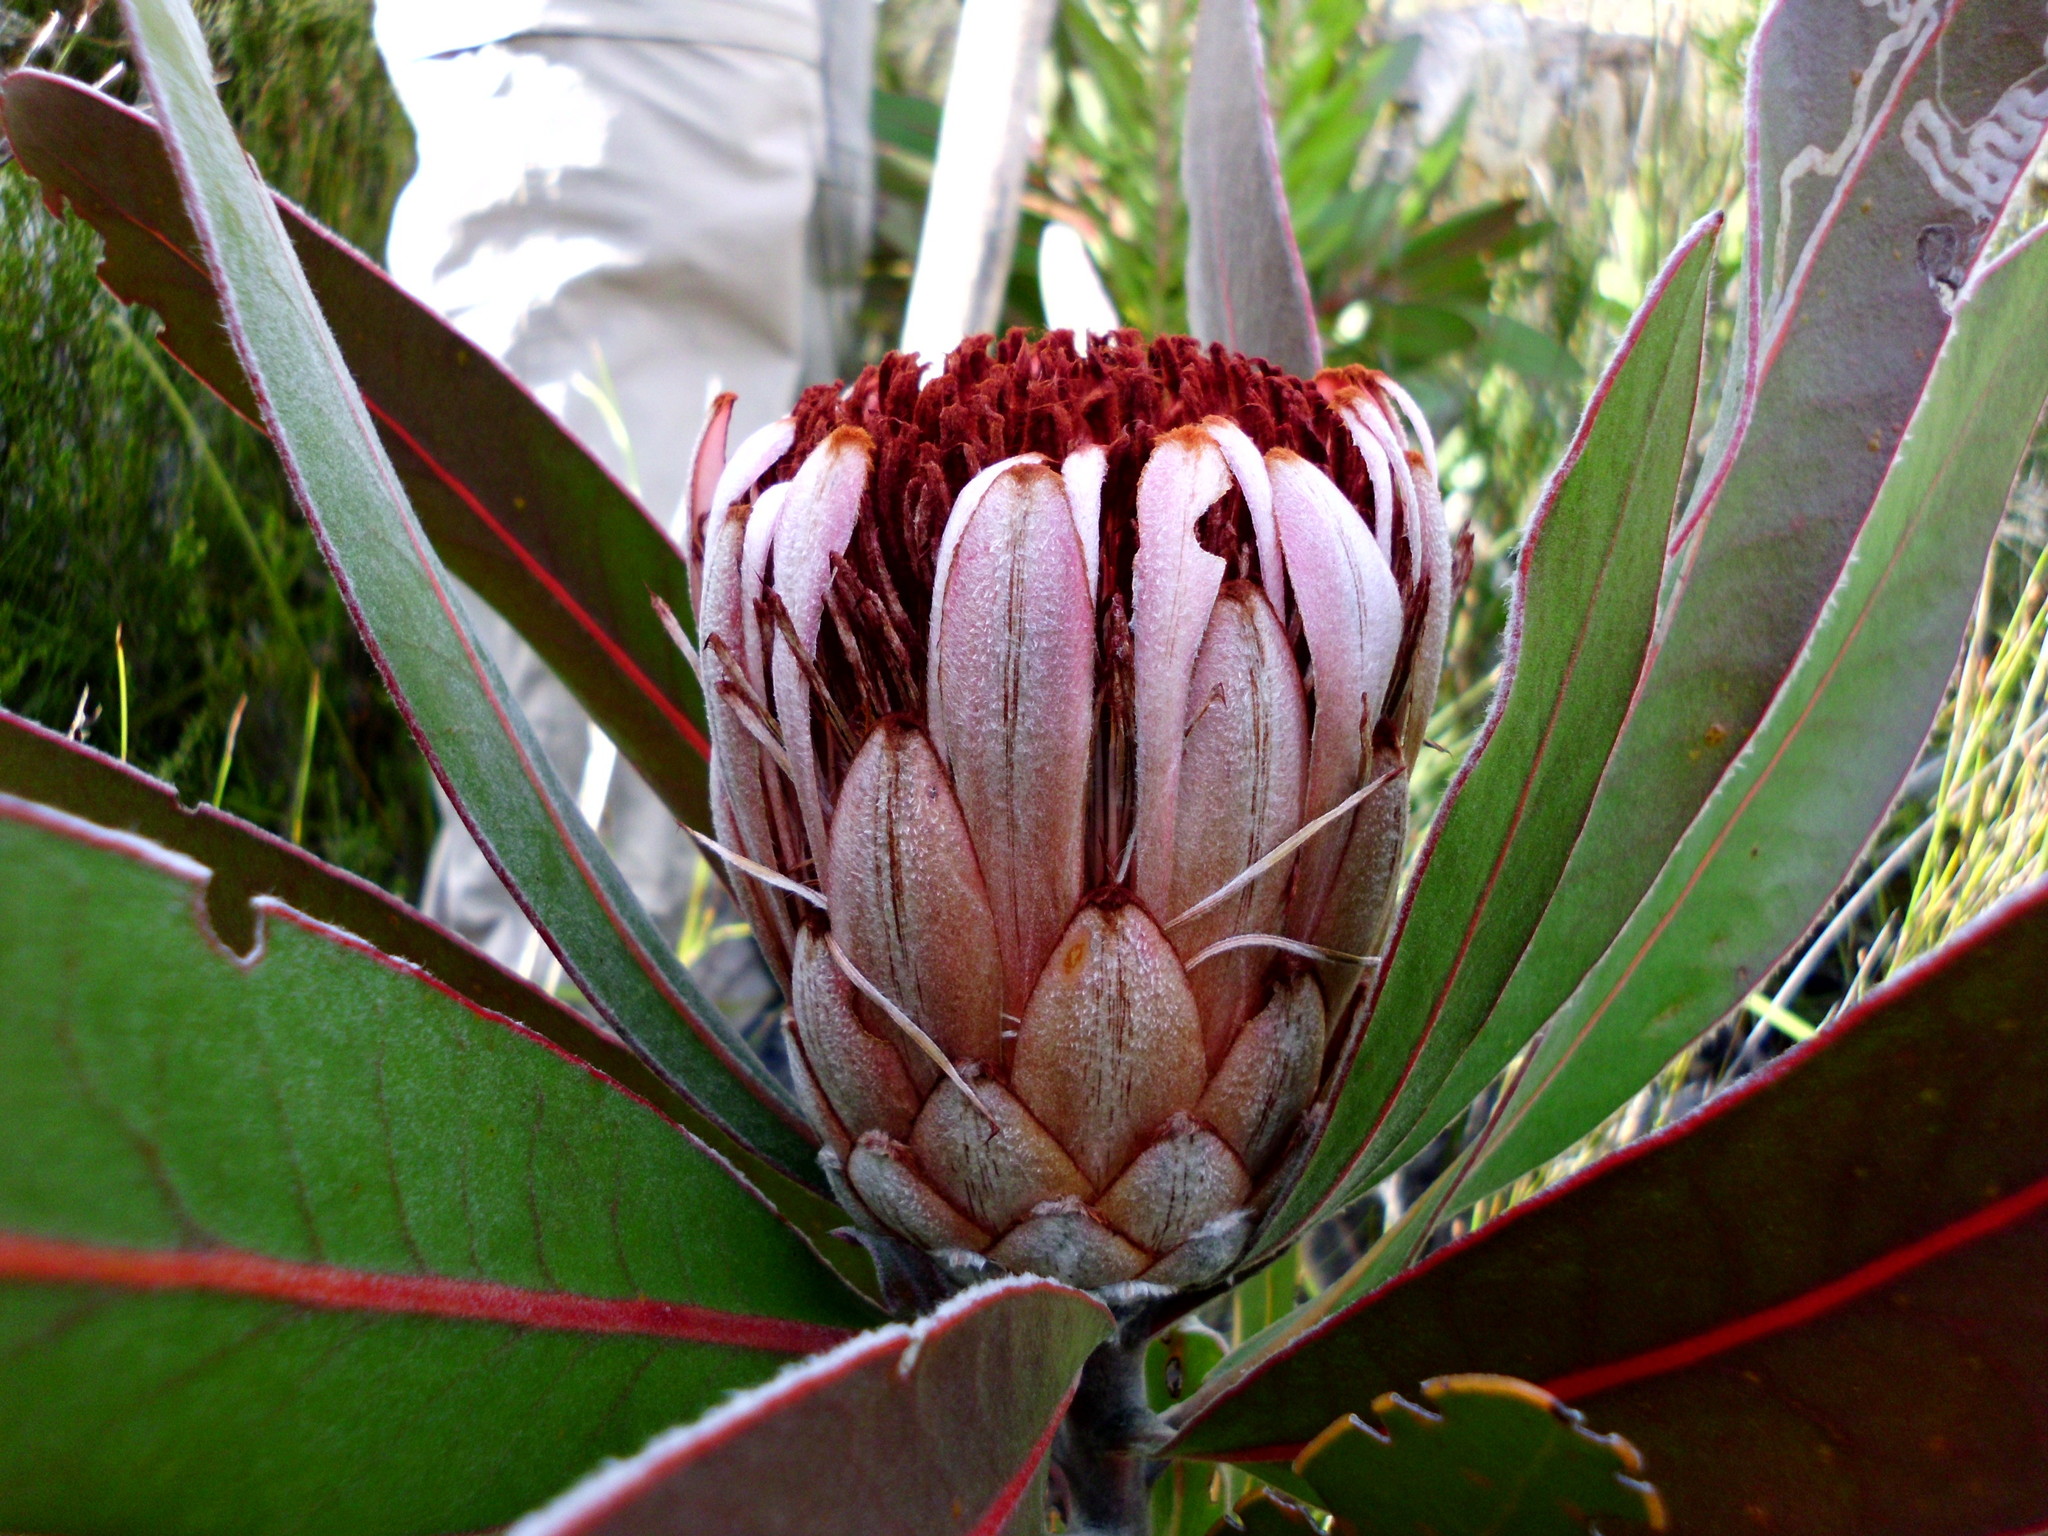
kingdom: Plantae
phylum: Tracheophyta
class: Magnoliopsida
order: Proteales
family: Proteaceae
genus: Protea
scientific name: Protea lorifolia
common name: Strap-leaved protea
